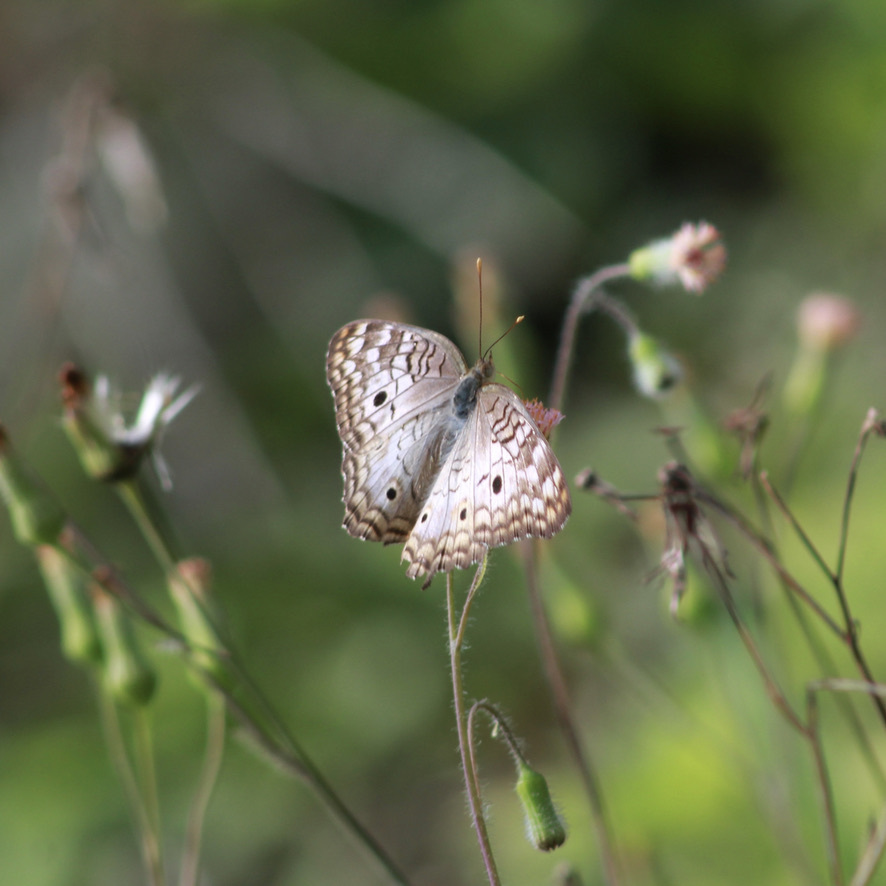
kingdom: Animalia
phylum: Arthropoda
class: Insecta
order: Lepidoptera
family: Nymphalidae
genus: Anartia
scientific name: Anartia jatrophae
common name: White peacock
